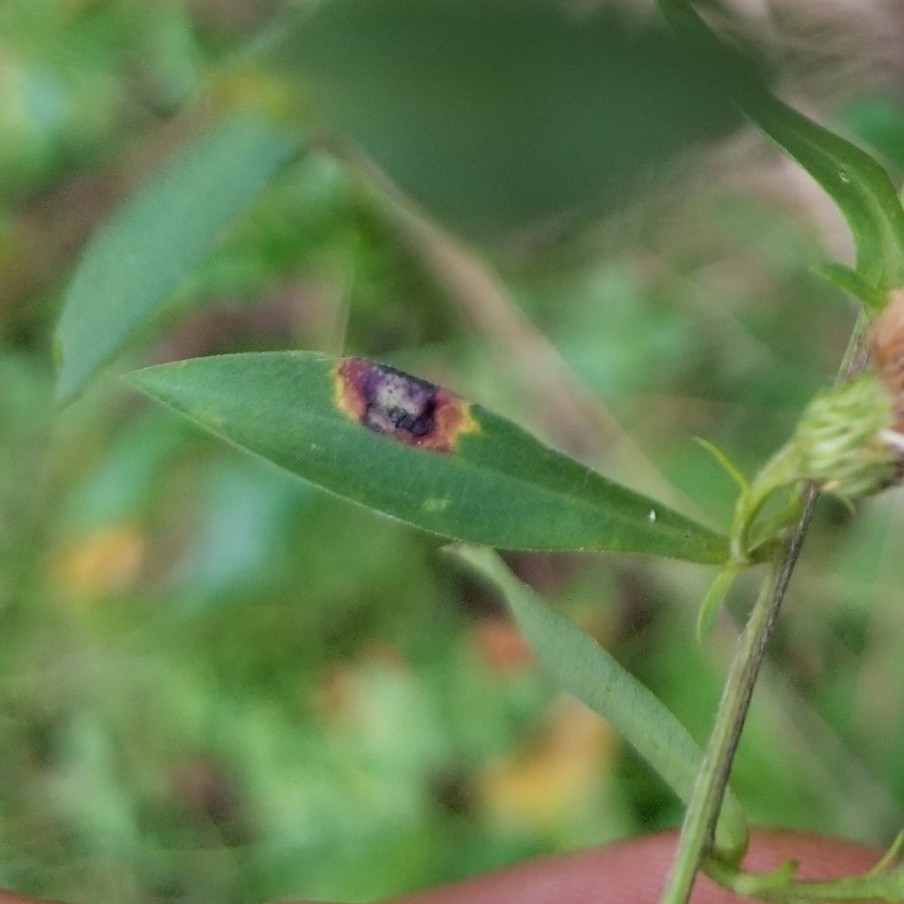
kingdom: Animalia
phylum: Arthropoda
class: Insecta
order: Diptera
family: Cecidomyiidae
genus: Asteromyia
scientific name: Asteromyia laeviana
